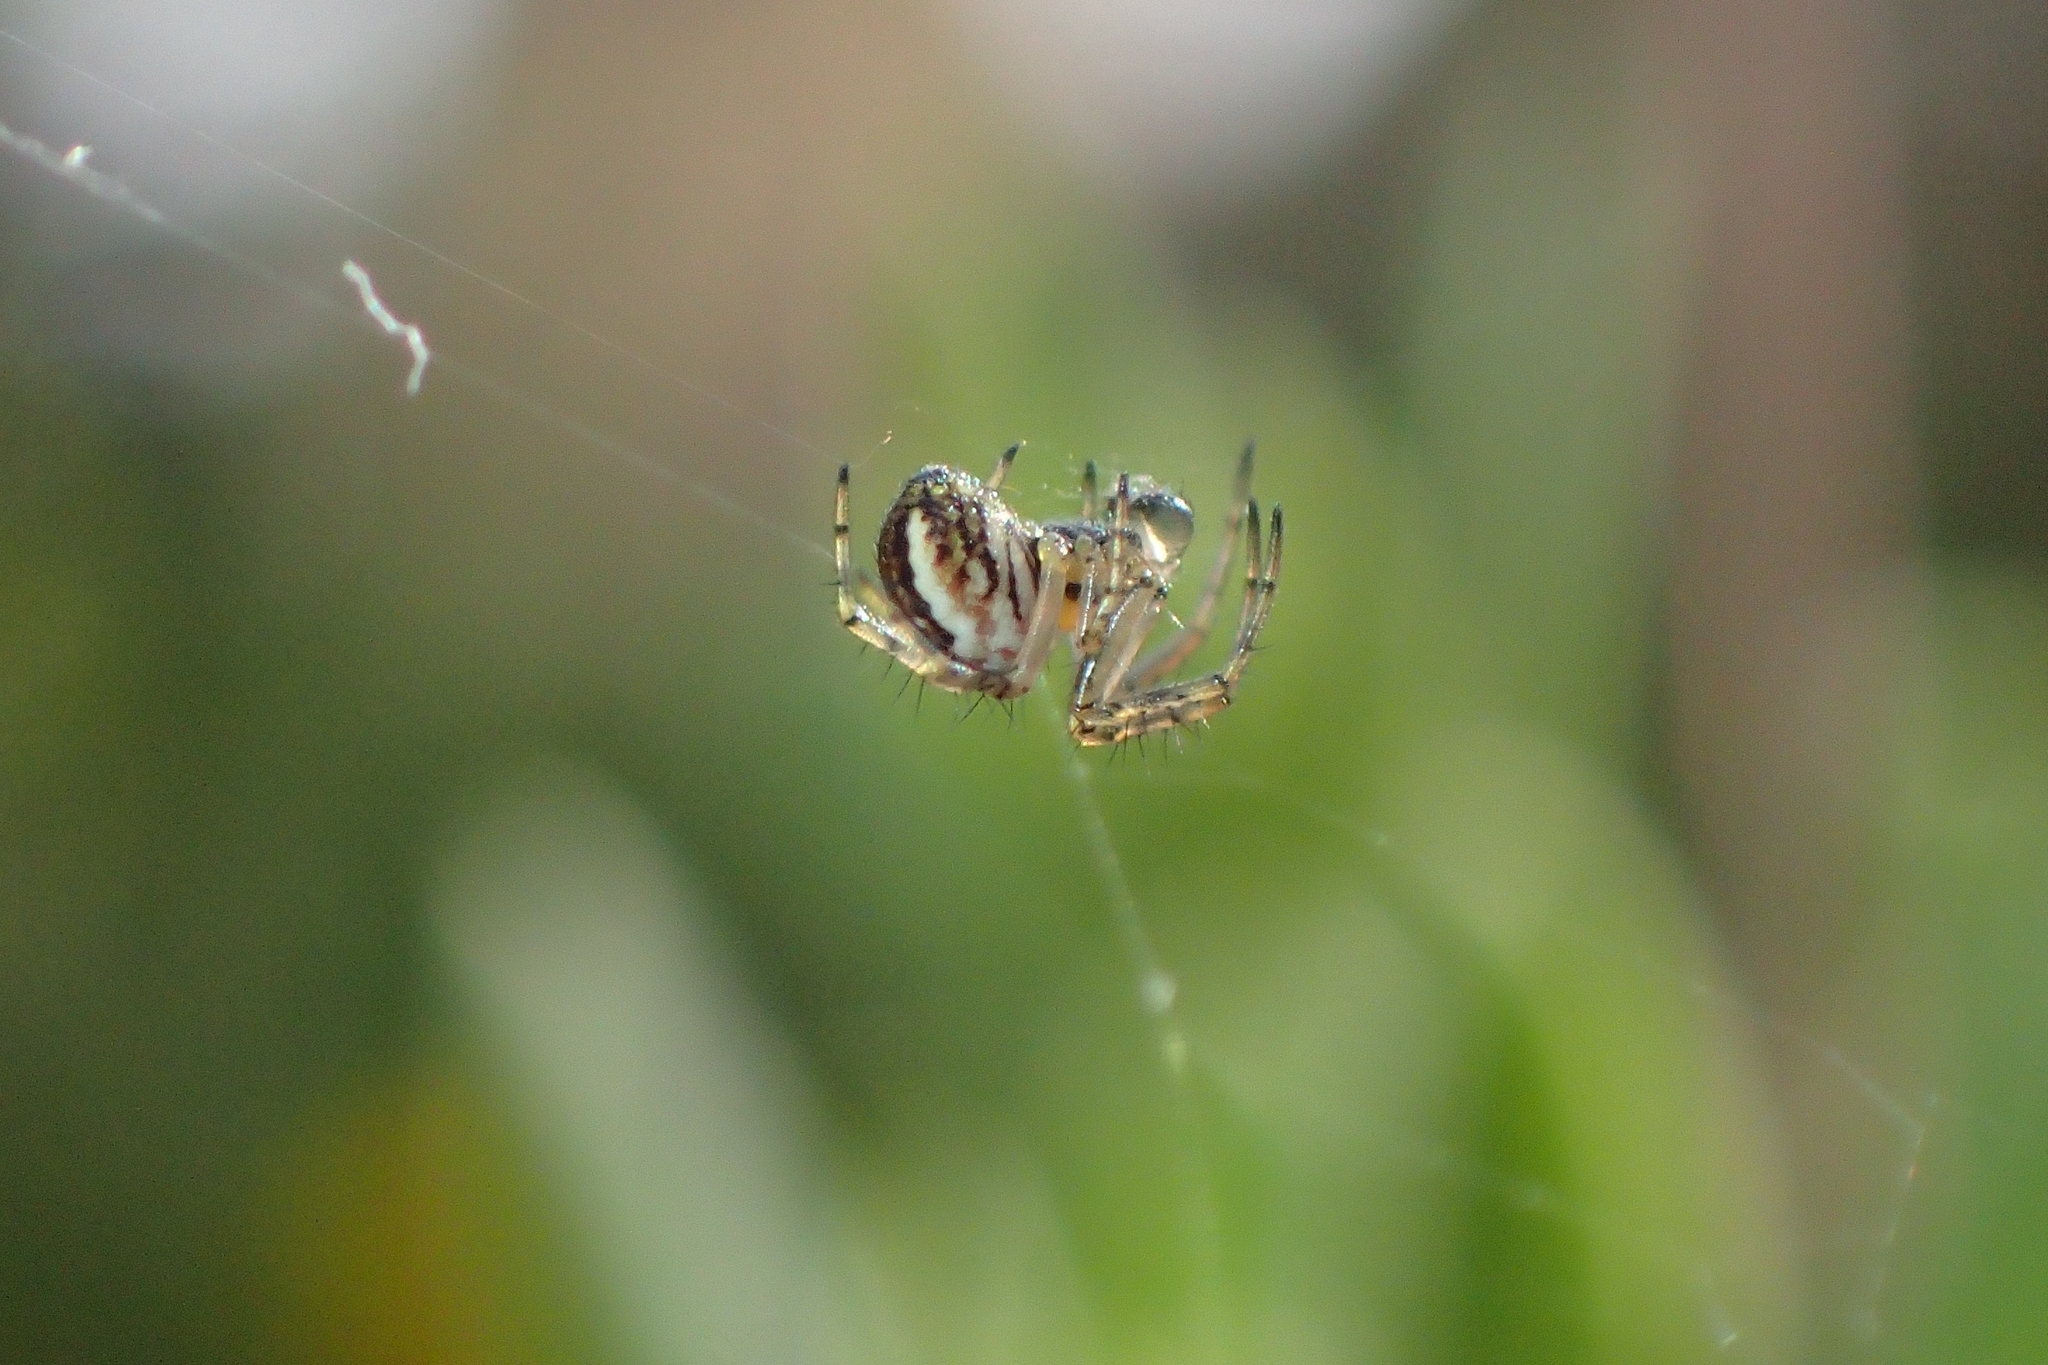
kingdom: Animalia
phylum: Arthropoda
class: Arachnida
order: Araneae
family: Araneidae
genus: Mangora
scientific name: Mangora acalypha
